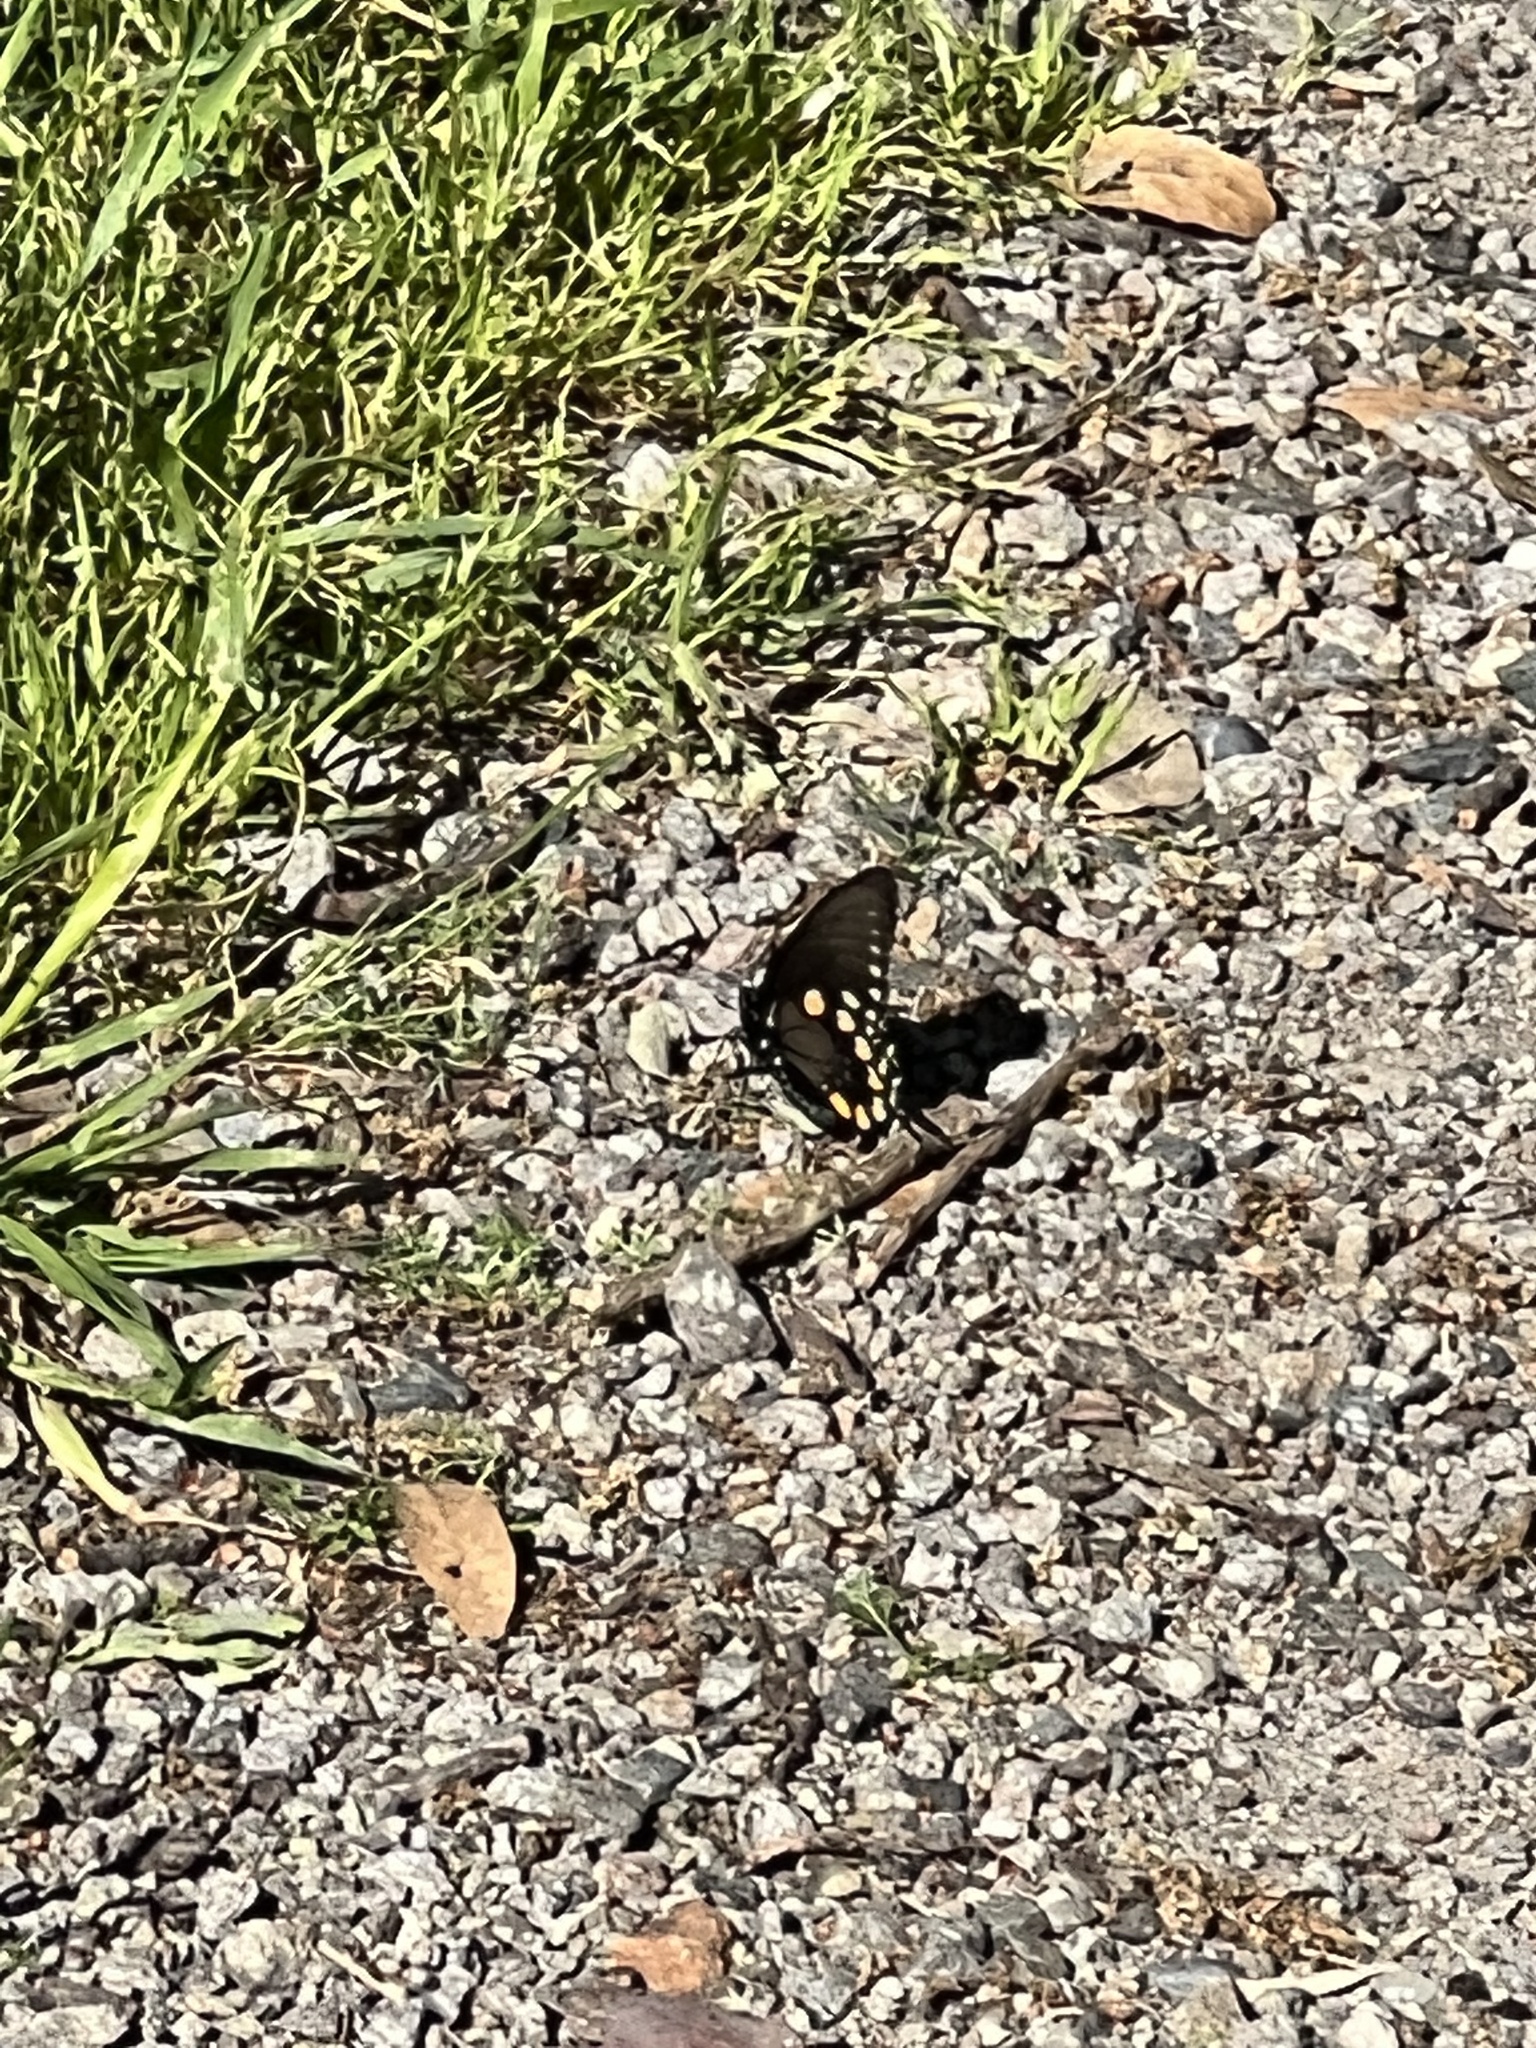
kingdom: Animalia
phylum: Arthropoda
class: Insecta
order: Lepidoptera
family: Papilionidae
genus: Battus
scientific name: Battus philenor
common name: Pipevine swallowtail
